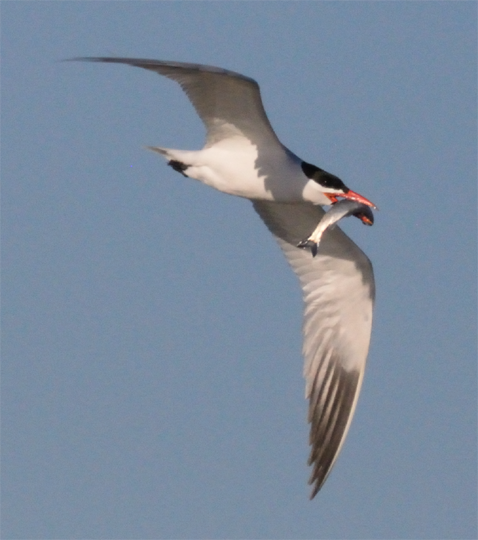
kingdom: Animalia
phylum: Chordata
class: Aves
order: Charadriiformes
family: Laridae
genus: Hydroprogne
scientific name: Hydroprogne caspia
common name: Caspian tern
